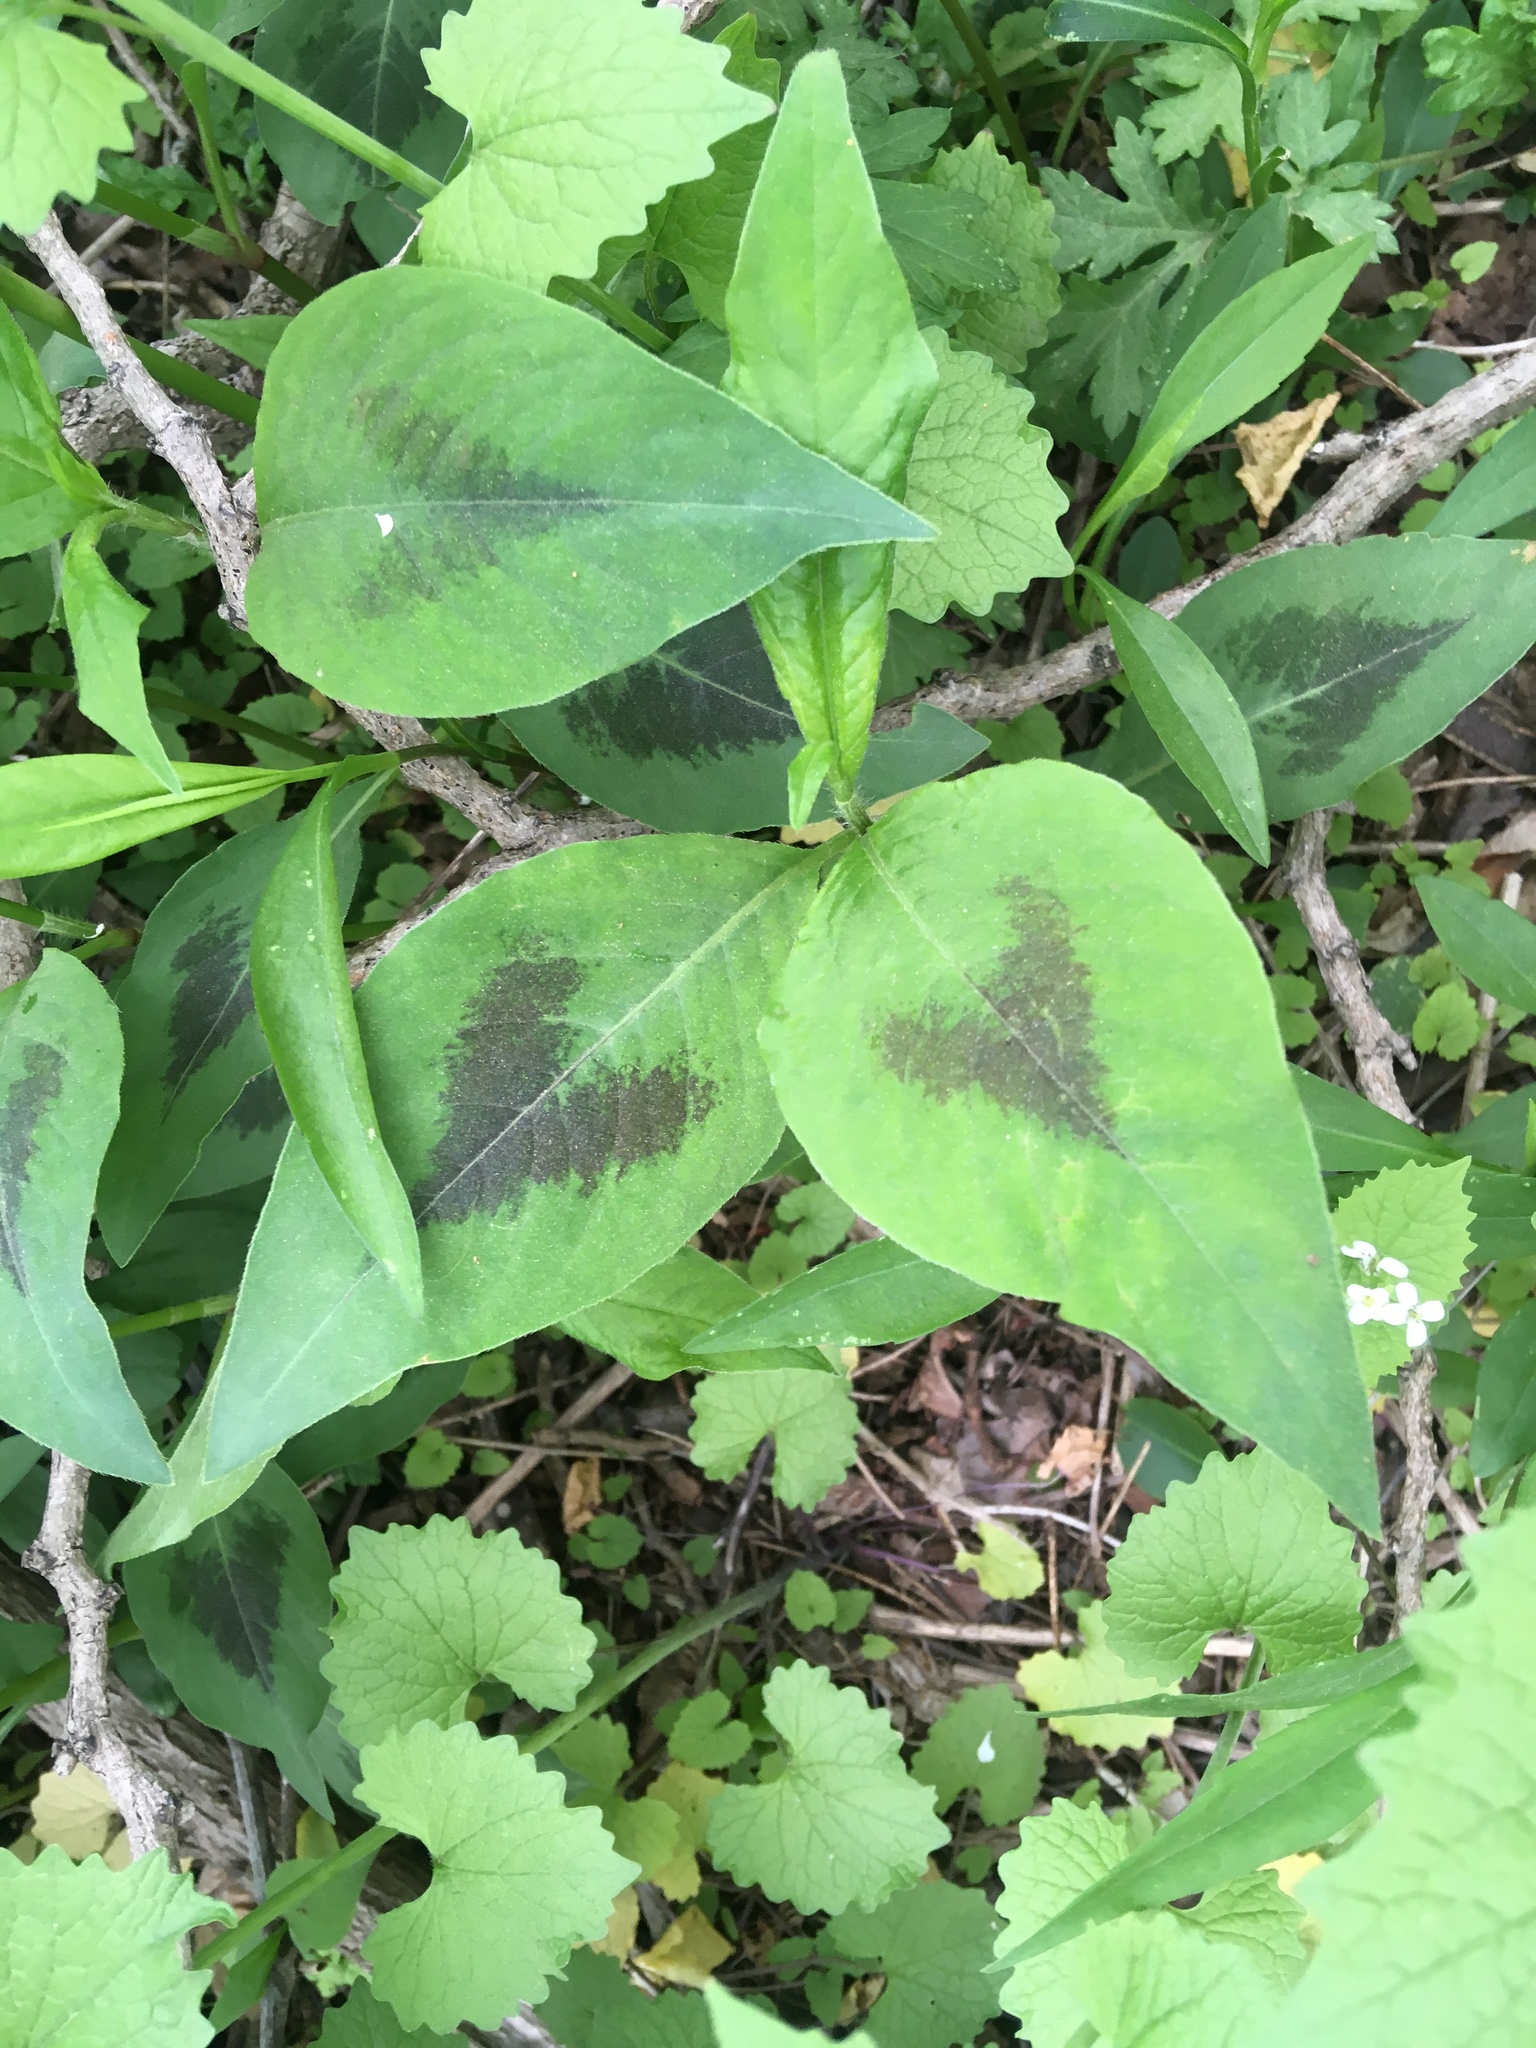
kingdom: Plantae
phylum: Tracheophyta
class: Magnoliopsida
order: Caryophyllales
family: Polygonaceae
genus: Persicaria
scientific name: Persicaria virginiana
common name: Jumpseed
